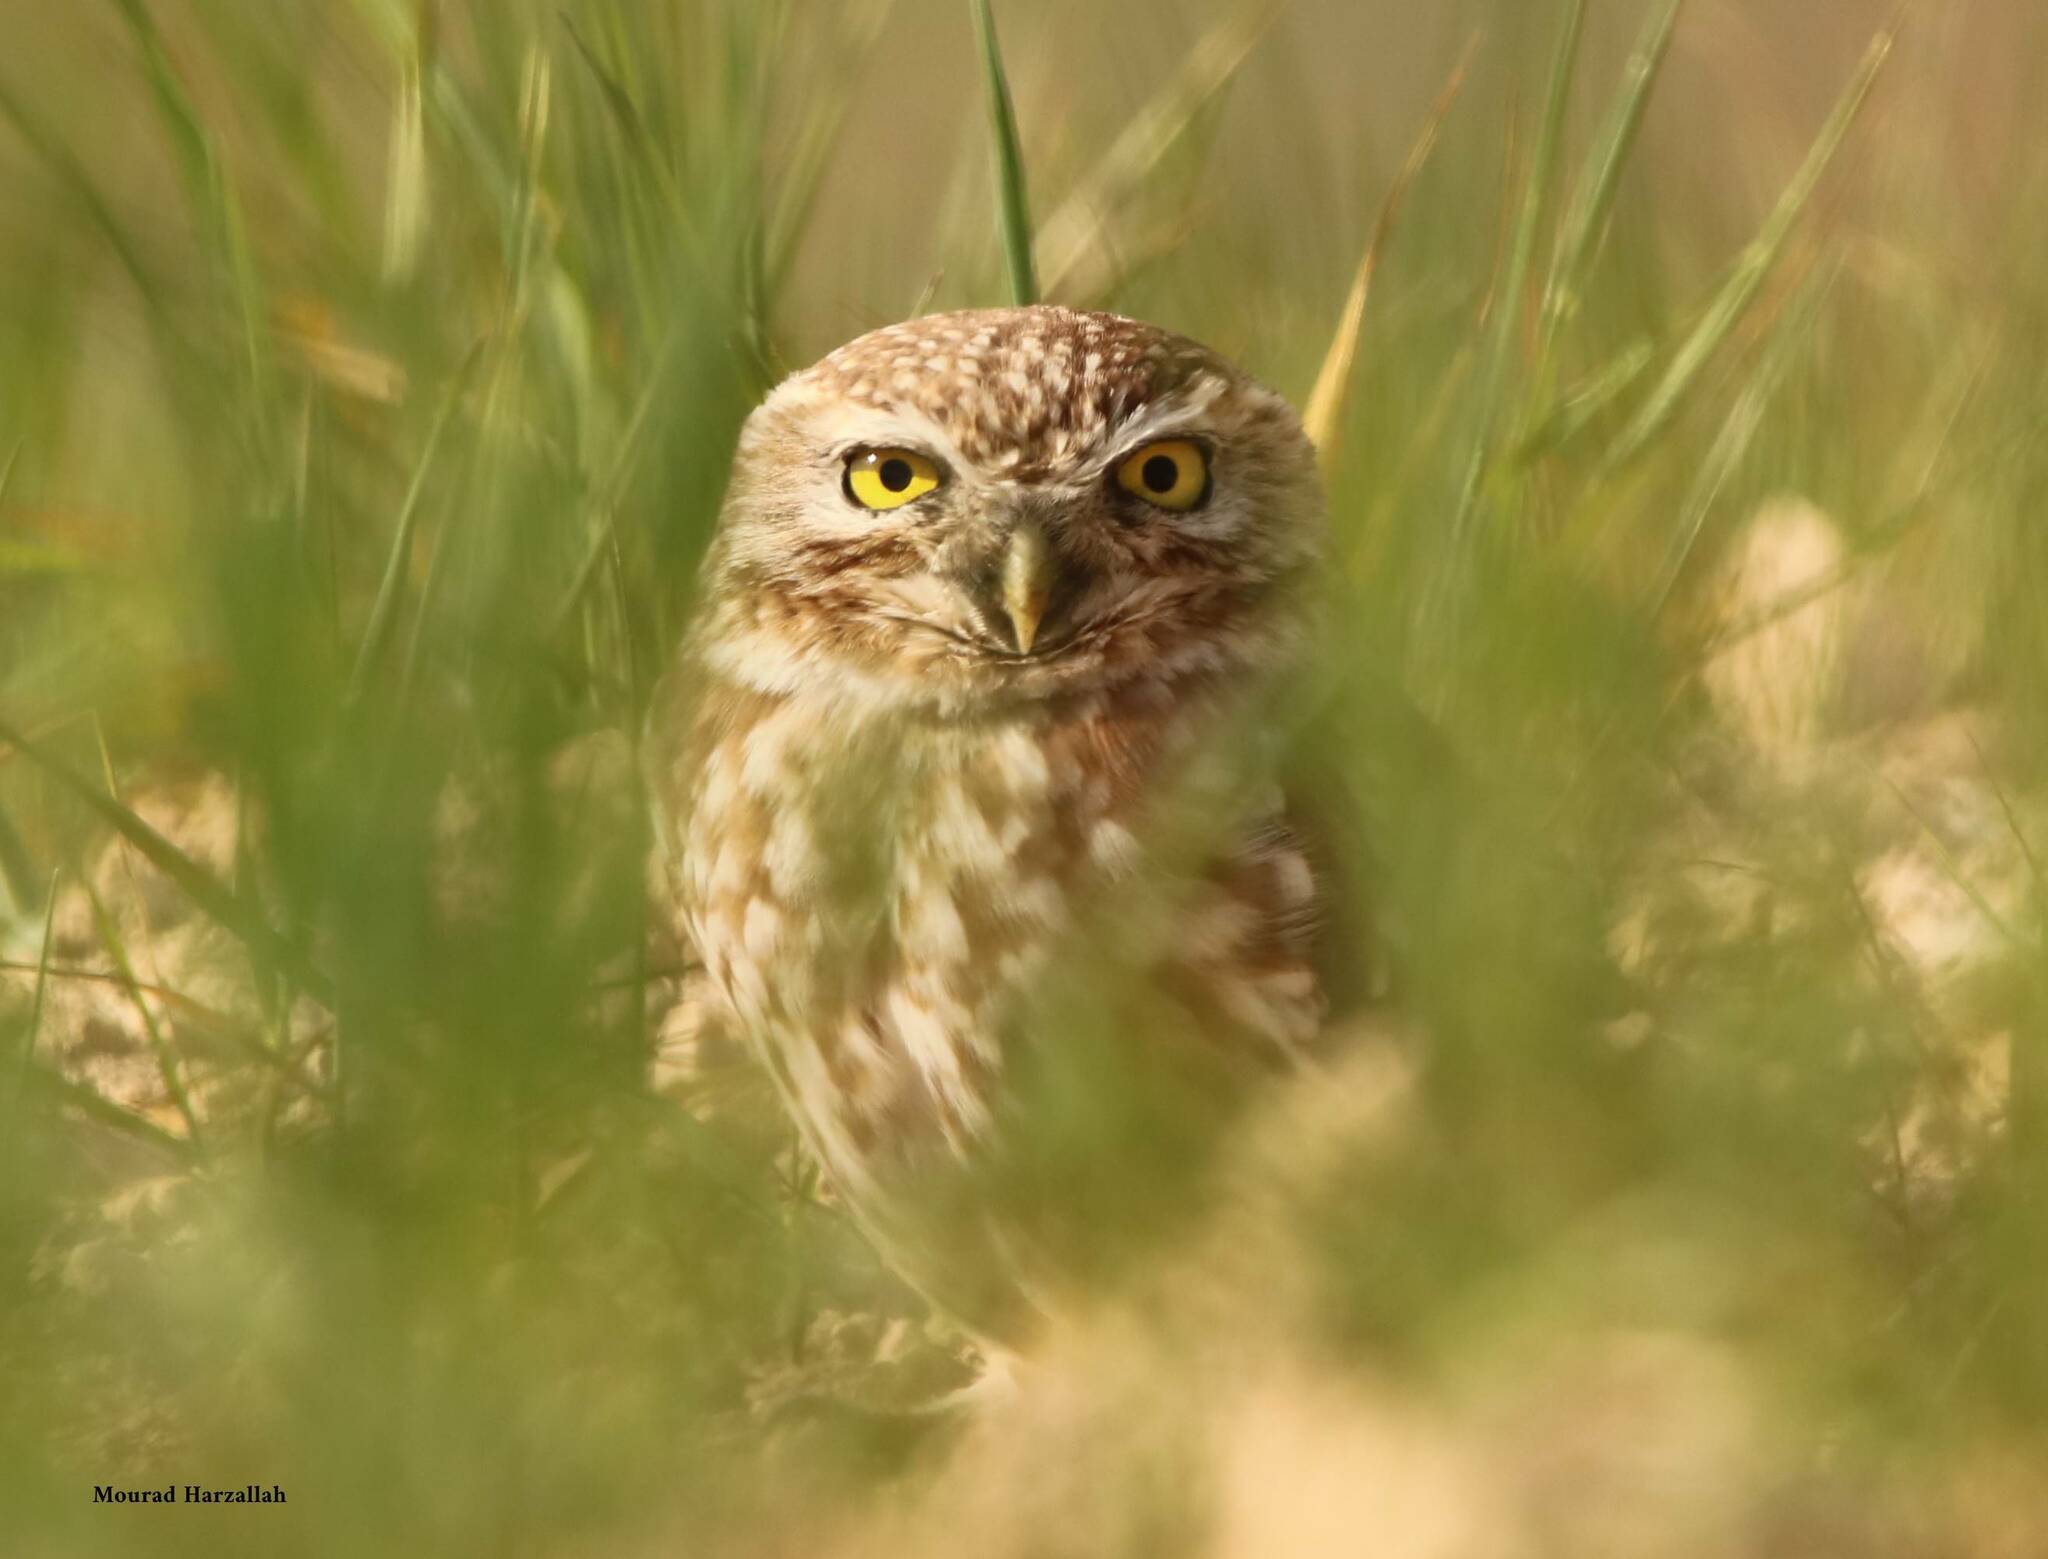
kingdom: Animalia
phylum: Chordata
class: Aves
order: Strigiformes
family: Strigidae
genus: Athene
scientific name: Athene noctua
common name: Little owl
